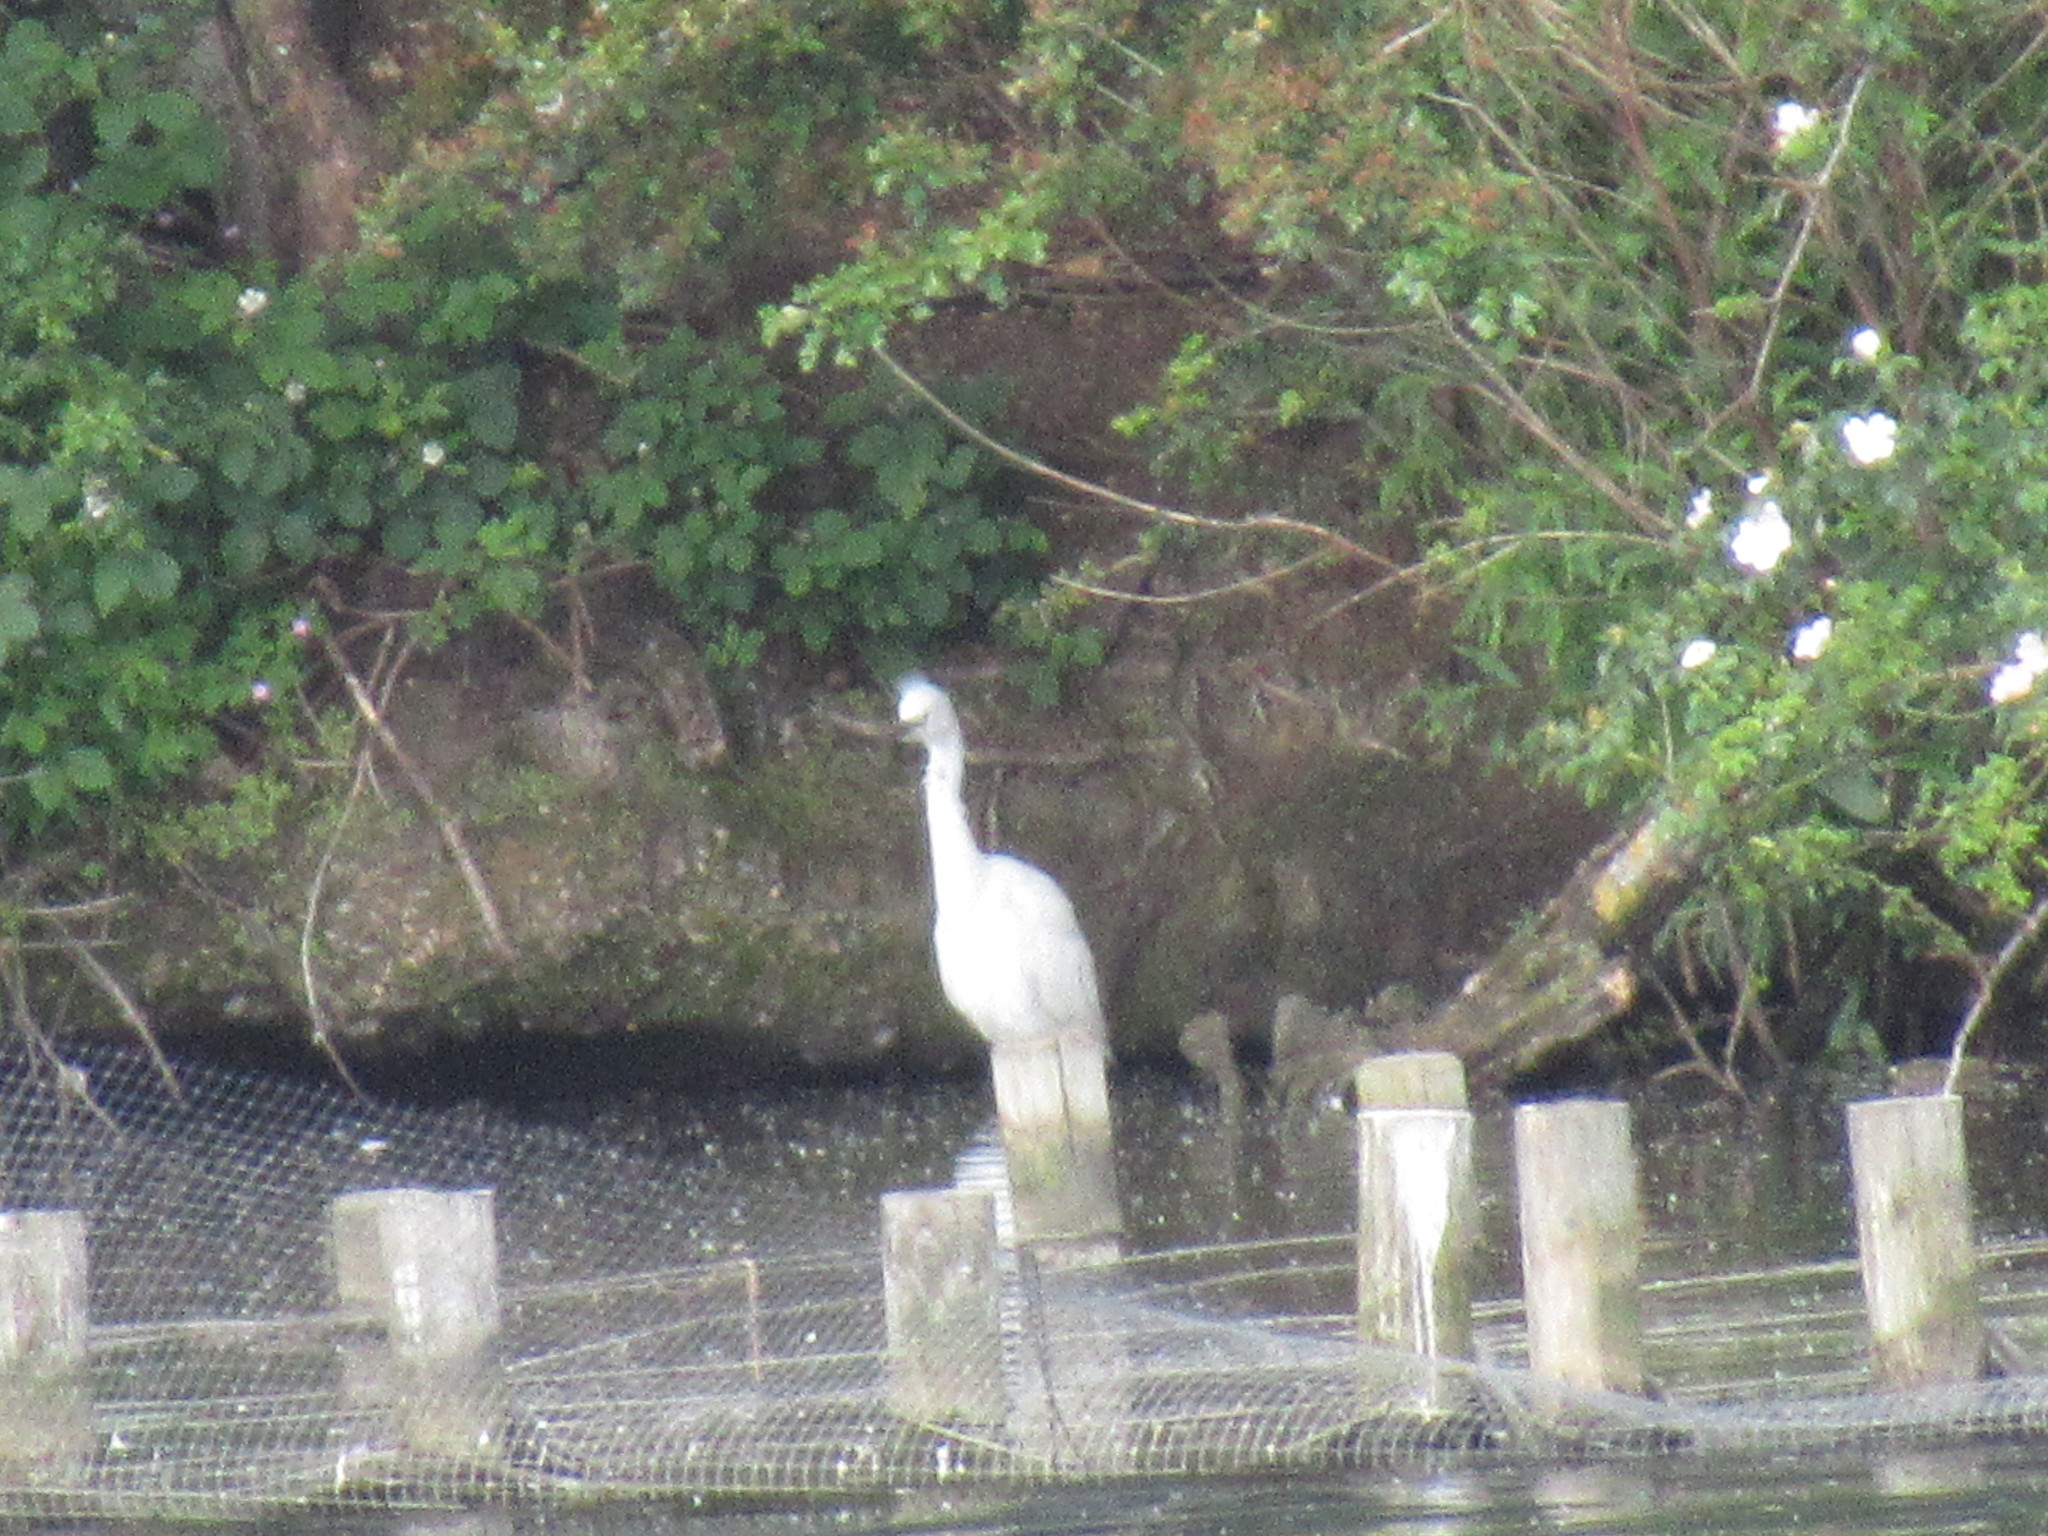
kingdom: Animalia
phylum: Chordata
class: Aves
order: Pelecaniformes
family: Ardeidae
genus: Egretta
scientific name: Egretta garzetta
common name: Little egret
